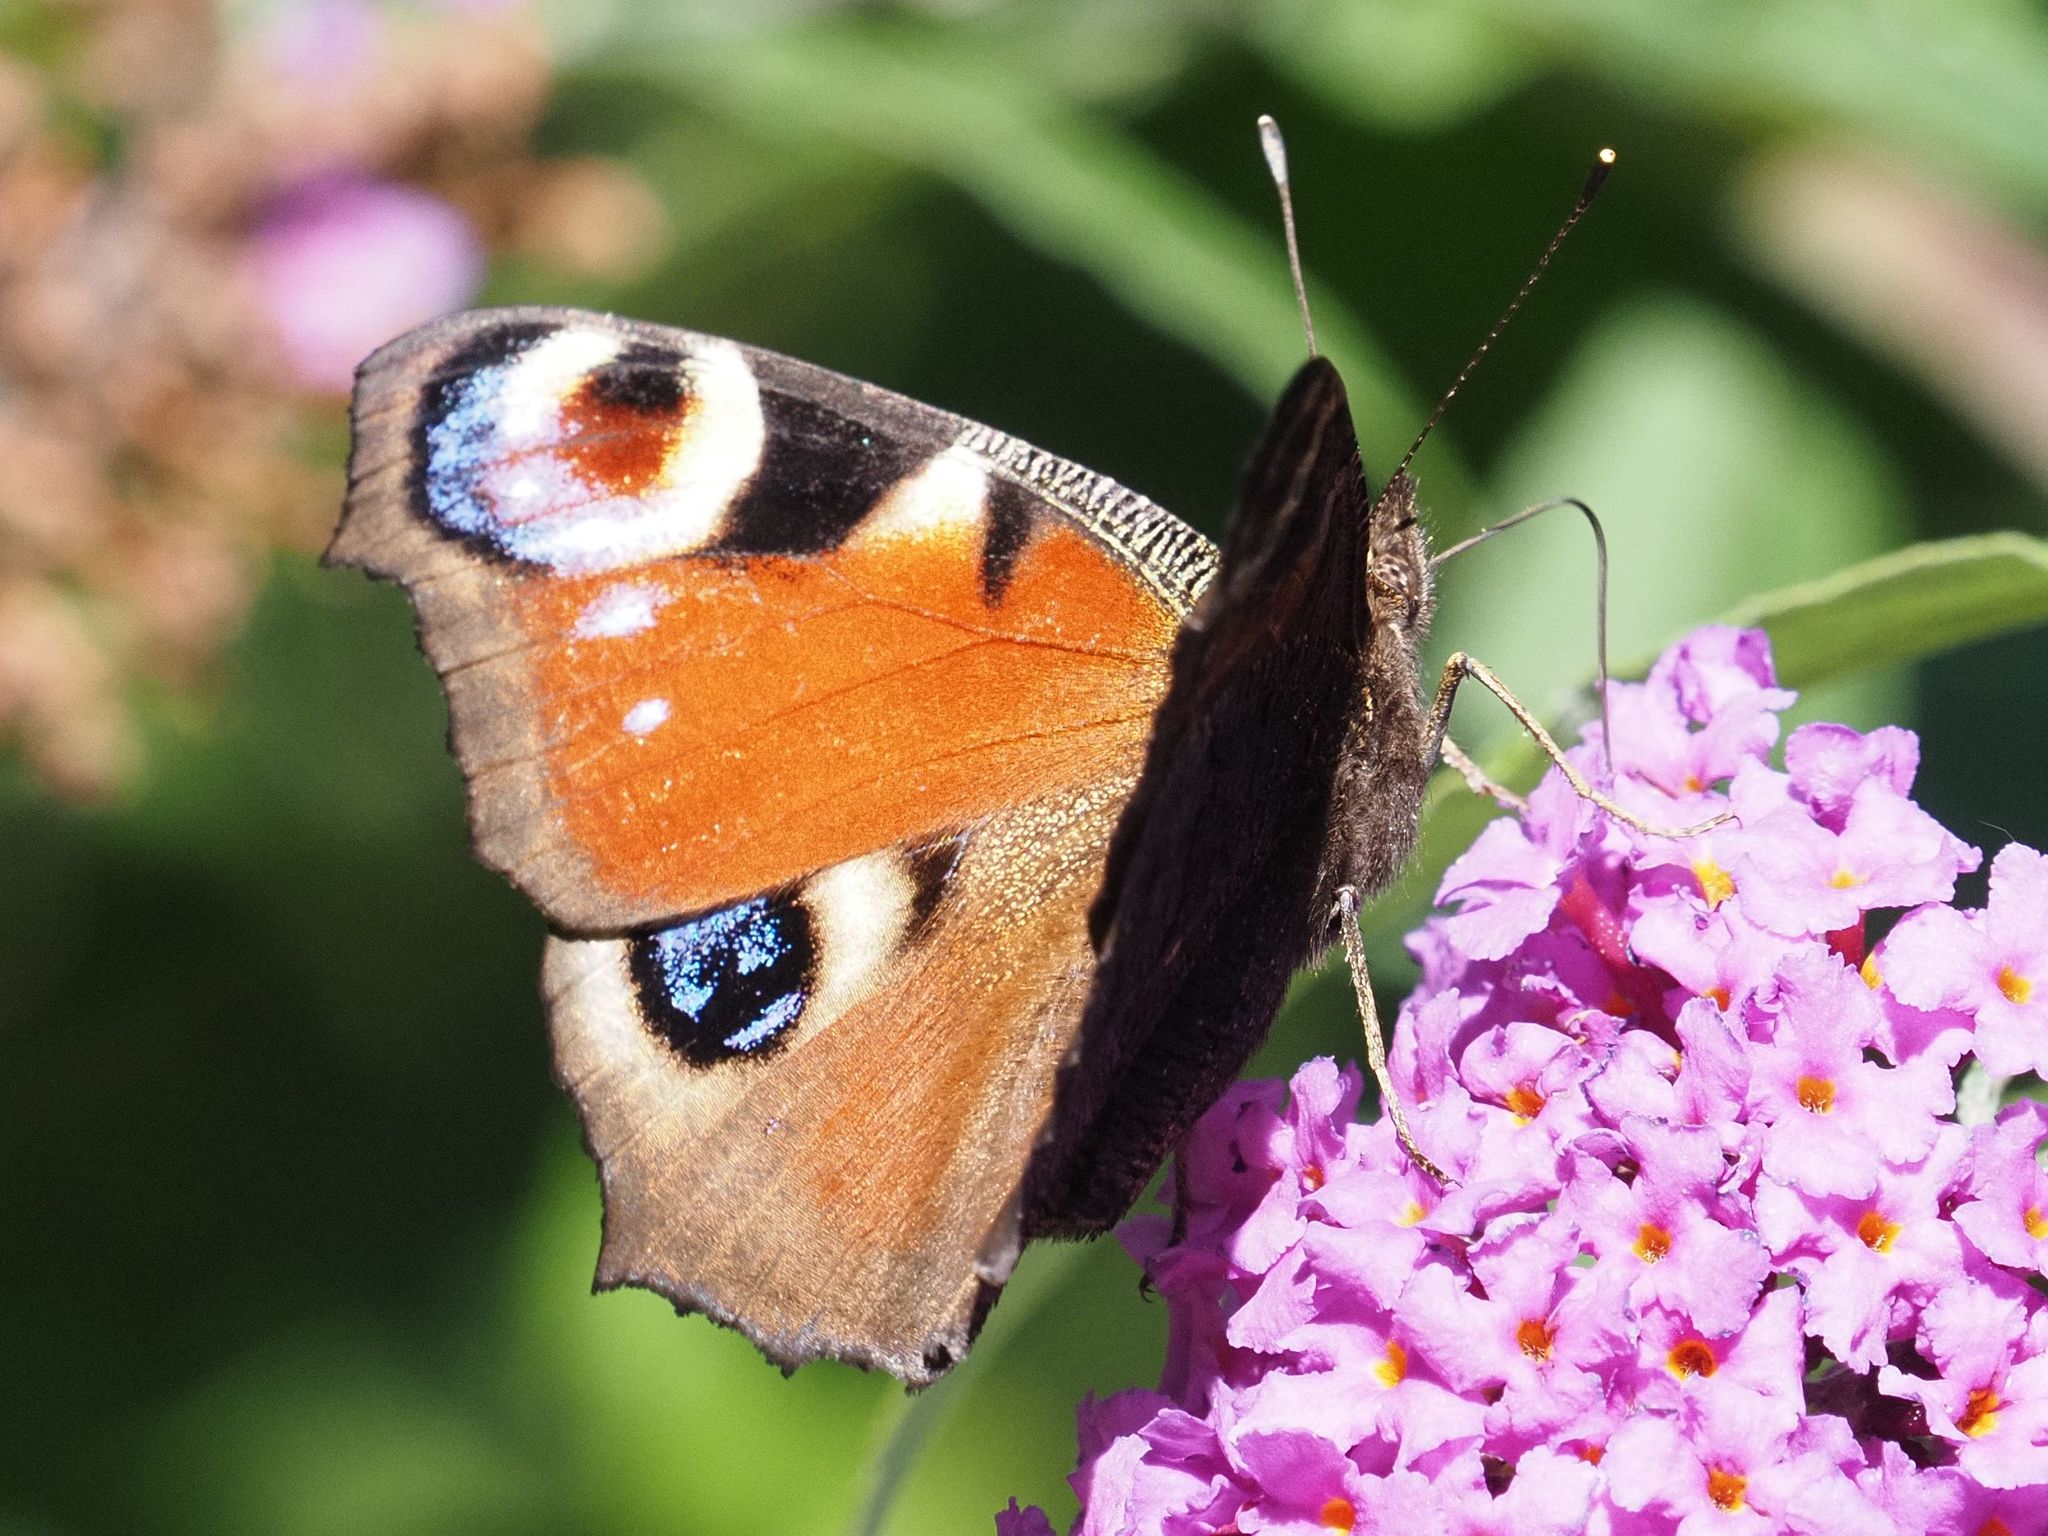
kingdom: Animalia
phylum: Arthropoda
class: Insecta
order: Lepidoptera
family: Nymphalidae
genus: Aglais
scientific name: Aglais io
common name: Peacock
